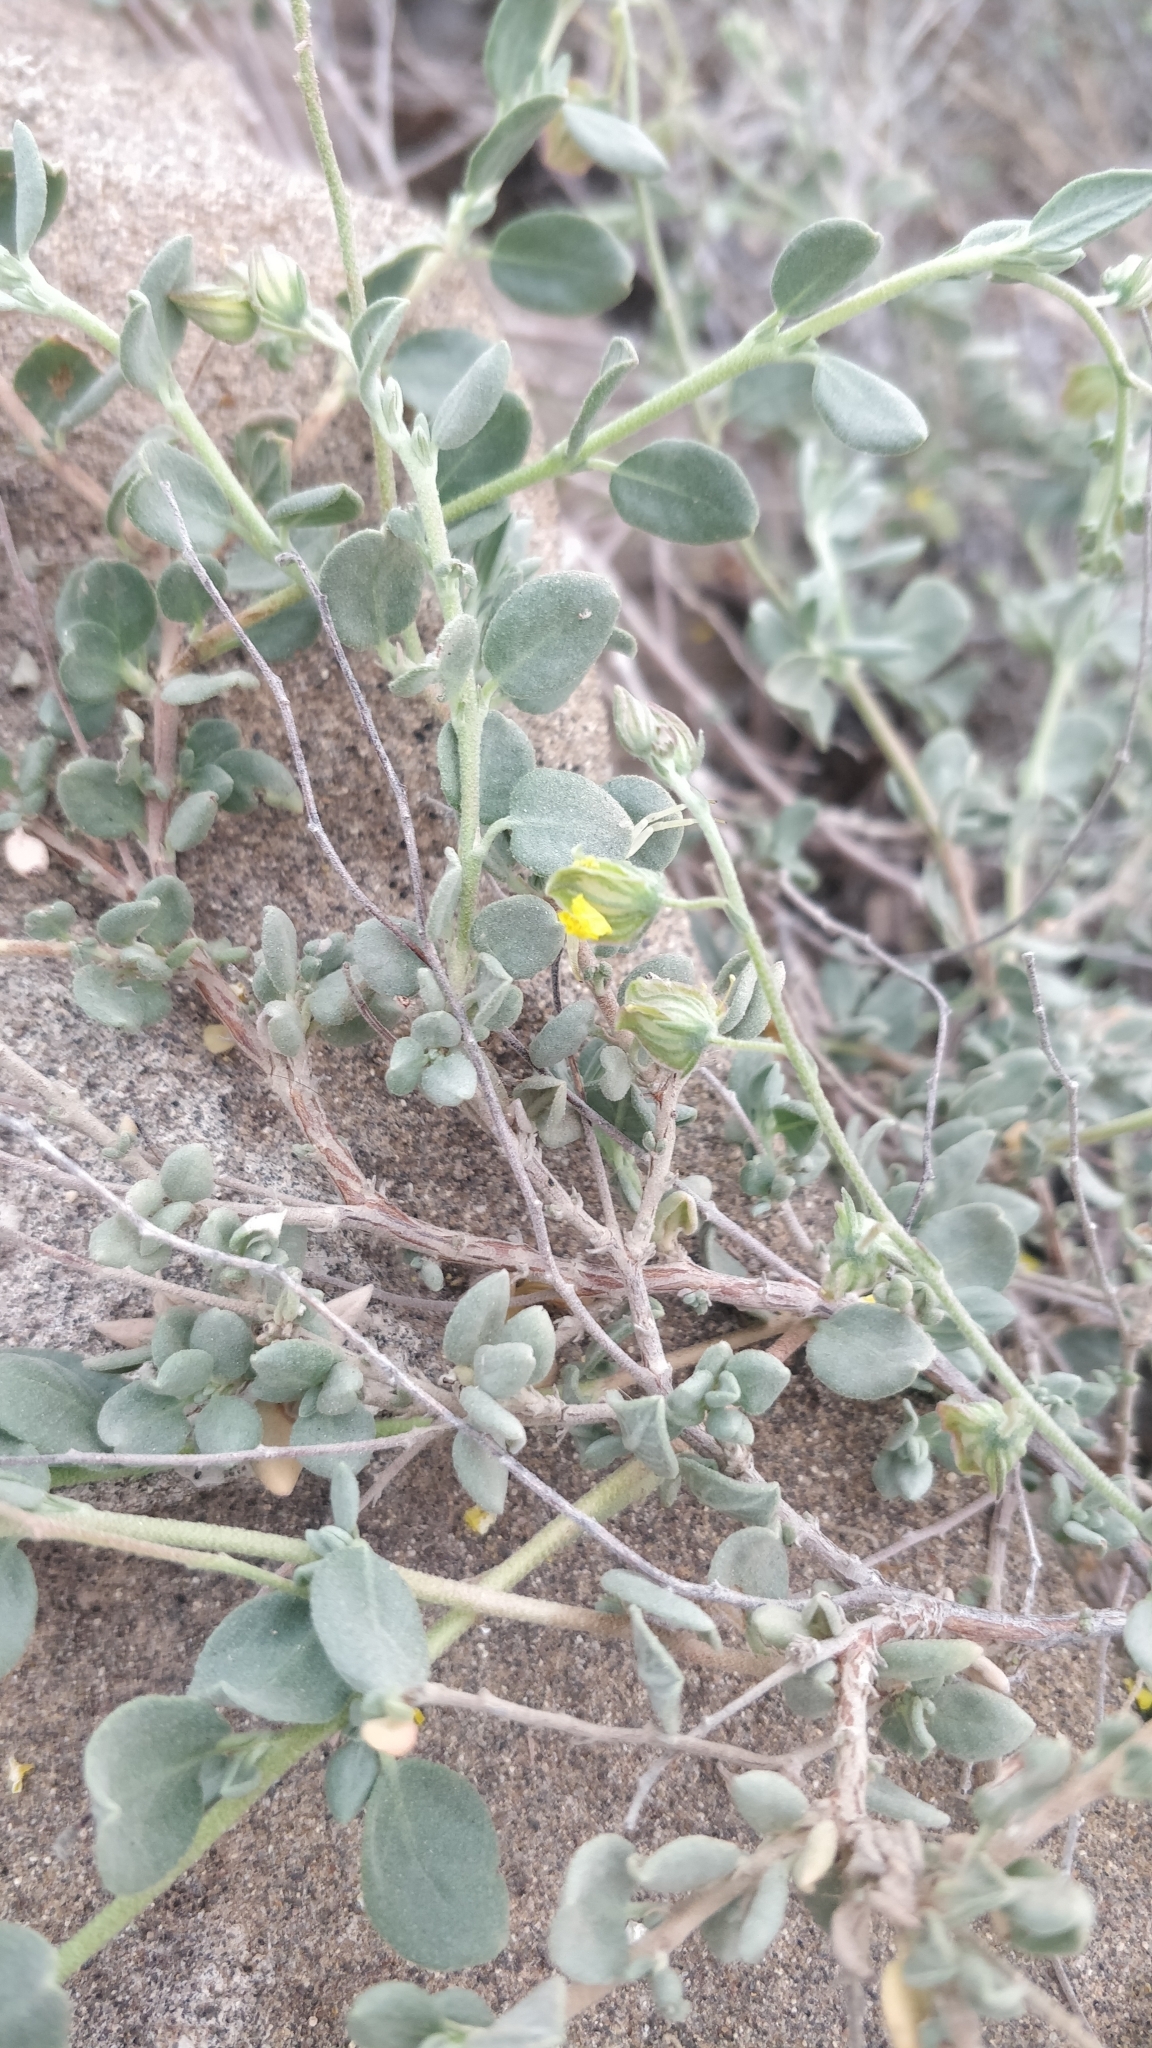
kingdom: Plantae
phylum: Tracheophyta
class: Magnoliopsida
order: Malvales
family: Cistaceae
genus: Helianthemum
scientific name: Helianthemum canariense
